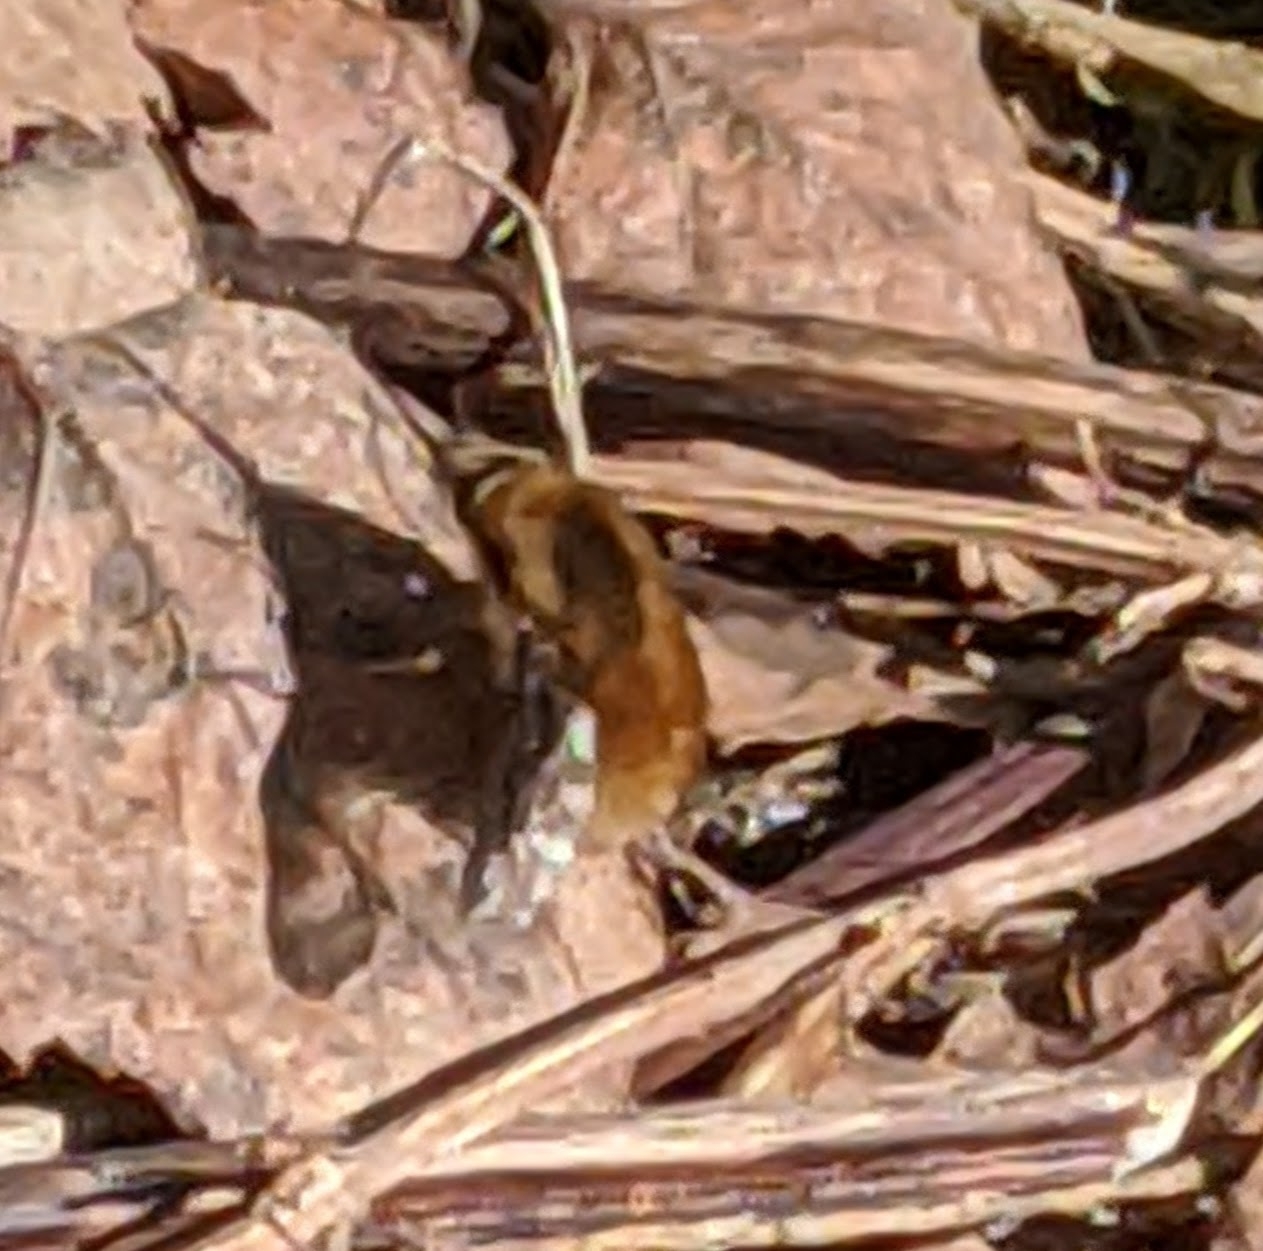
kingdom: Animalia
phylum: Arthropoda
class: Insecta
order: Diptera
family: Bombyliidae
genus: Bombylius
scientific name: Bombylius major
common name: Bee fly
